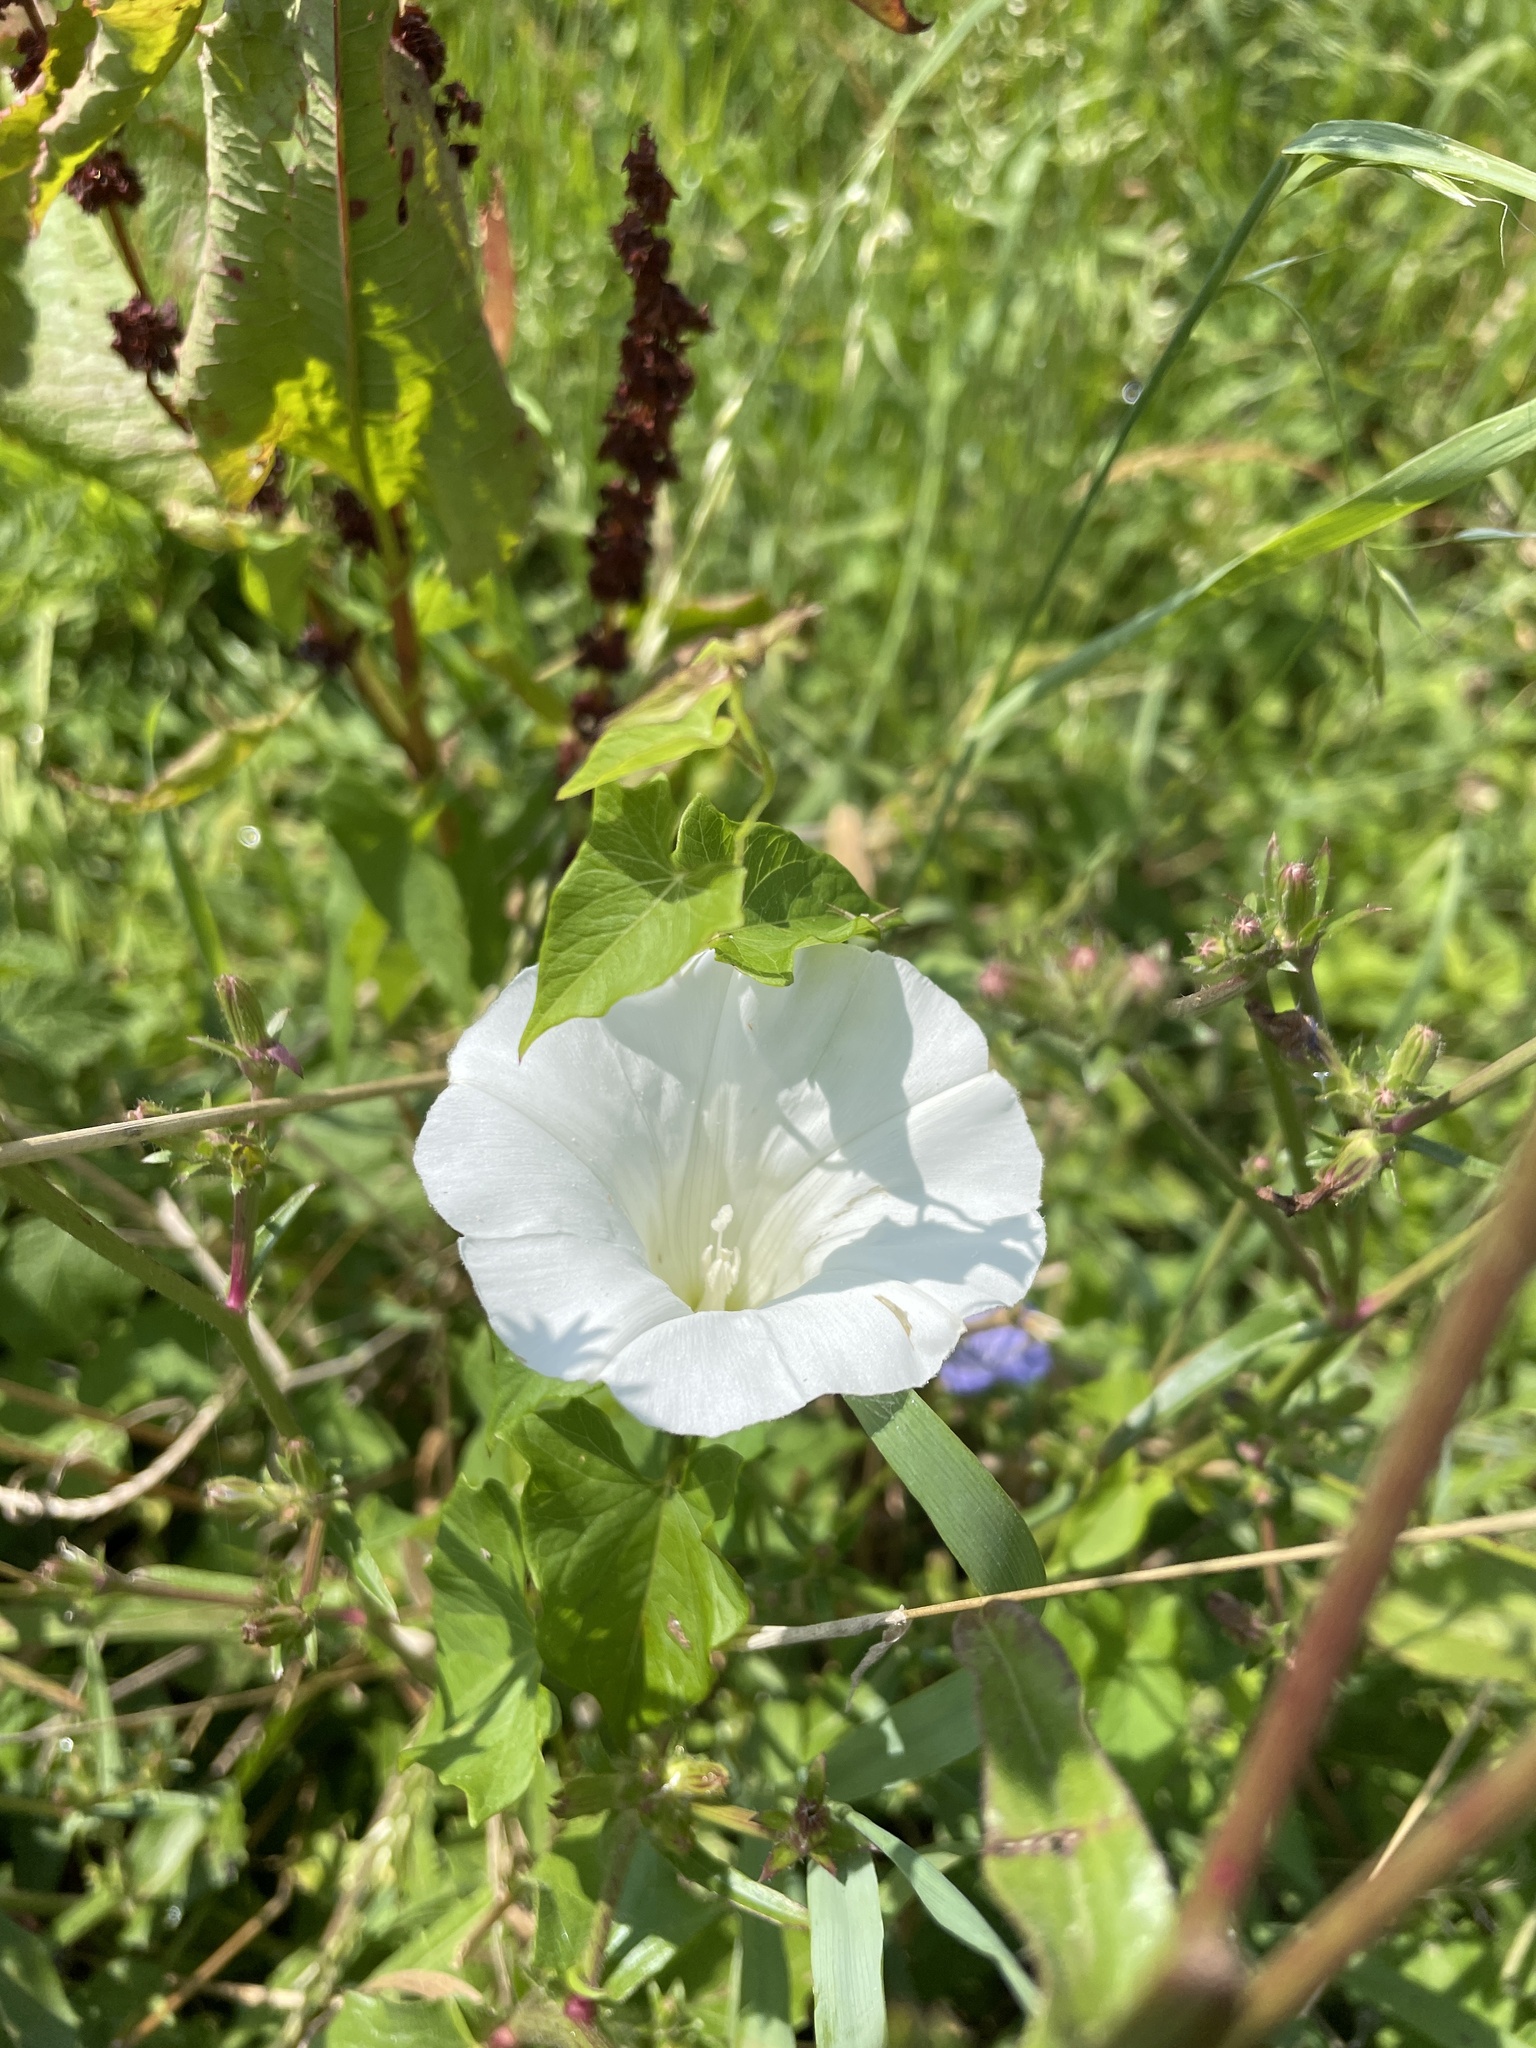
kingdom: Plantae
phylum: Tracheophyta
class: Magnoliopsida
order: Solanales
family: Convolvulaceae
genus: Calystegia
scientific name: Calystegia
